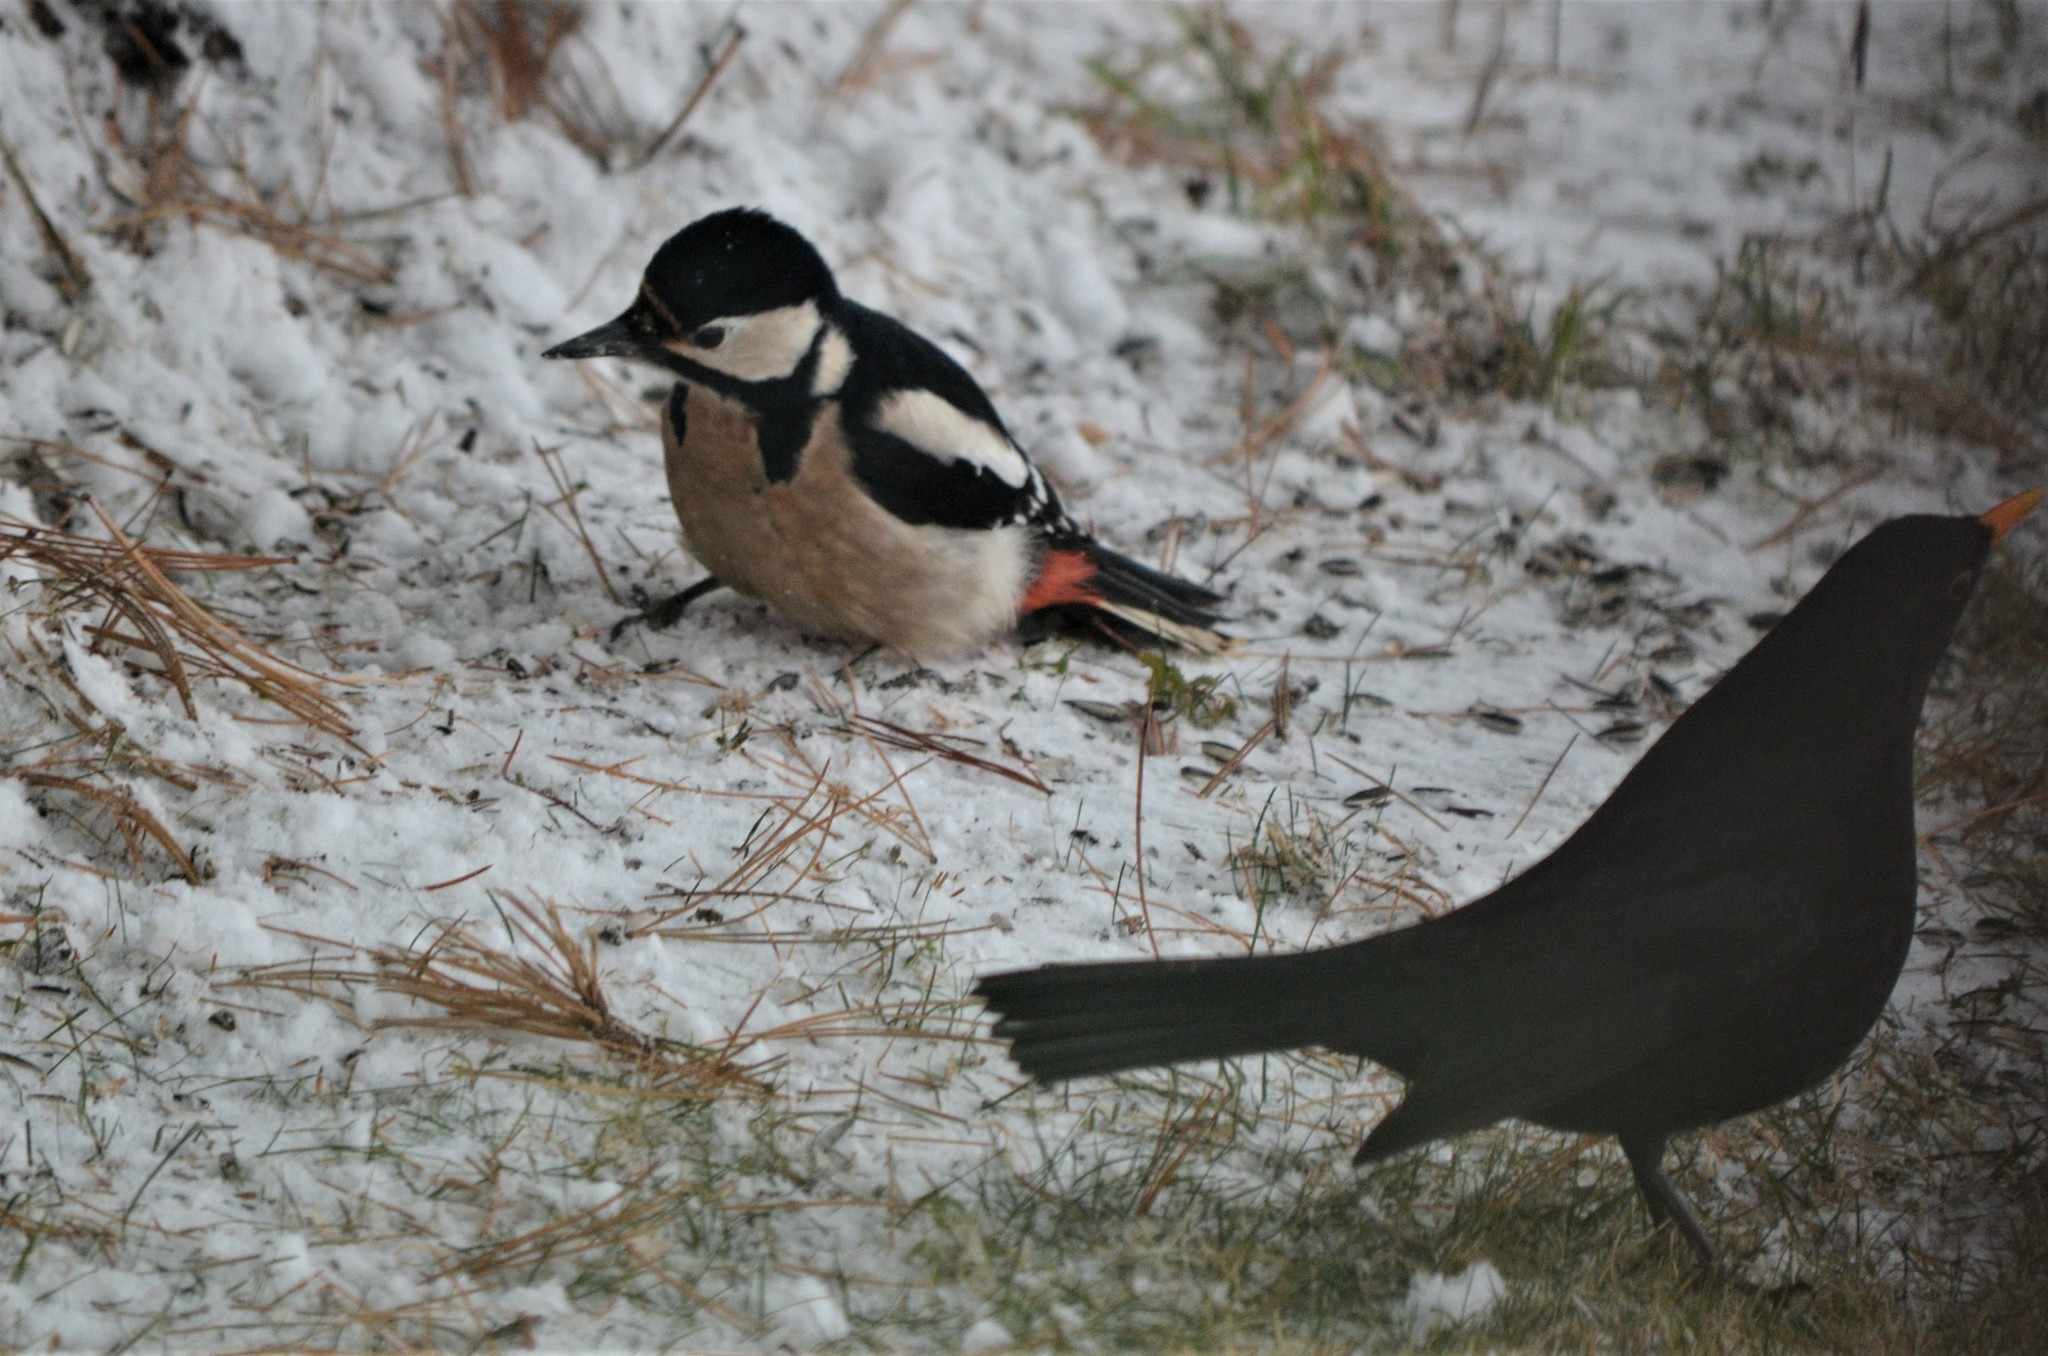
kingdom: Animalia
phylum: Chordata
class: Aves
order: Passeriformes
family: Turdidae
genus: Turdus
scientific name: Turdus merula
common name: Common blackbird
